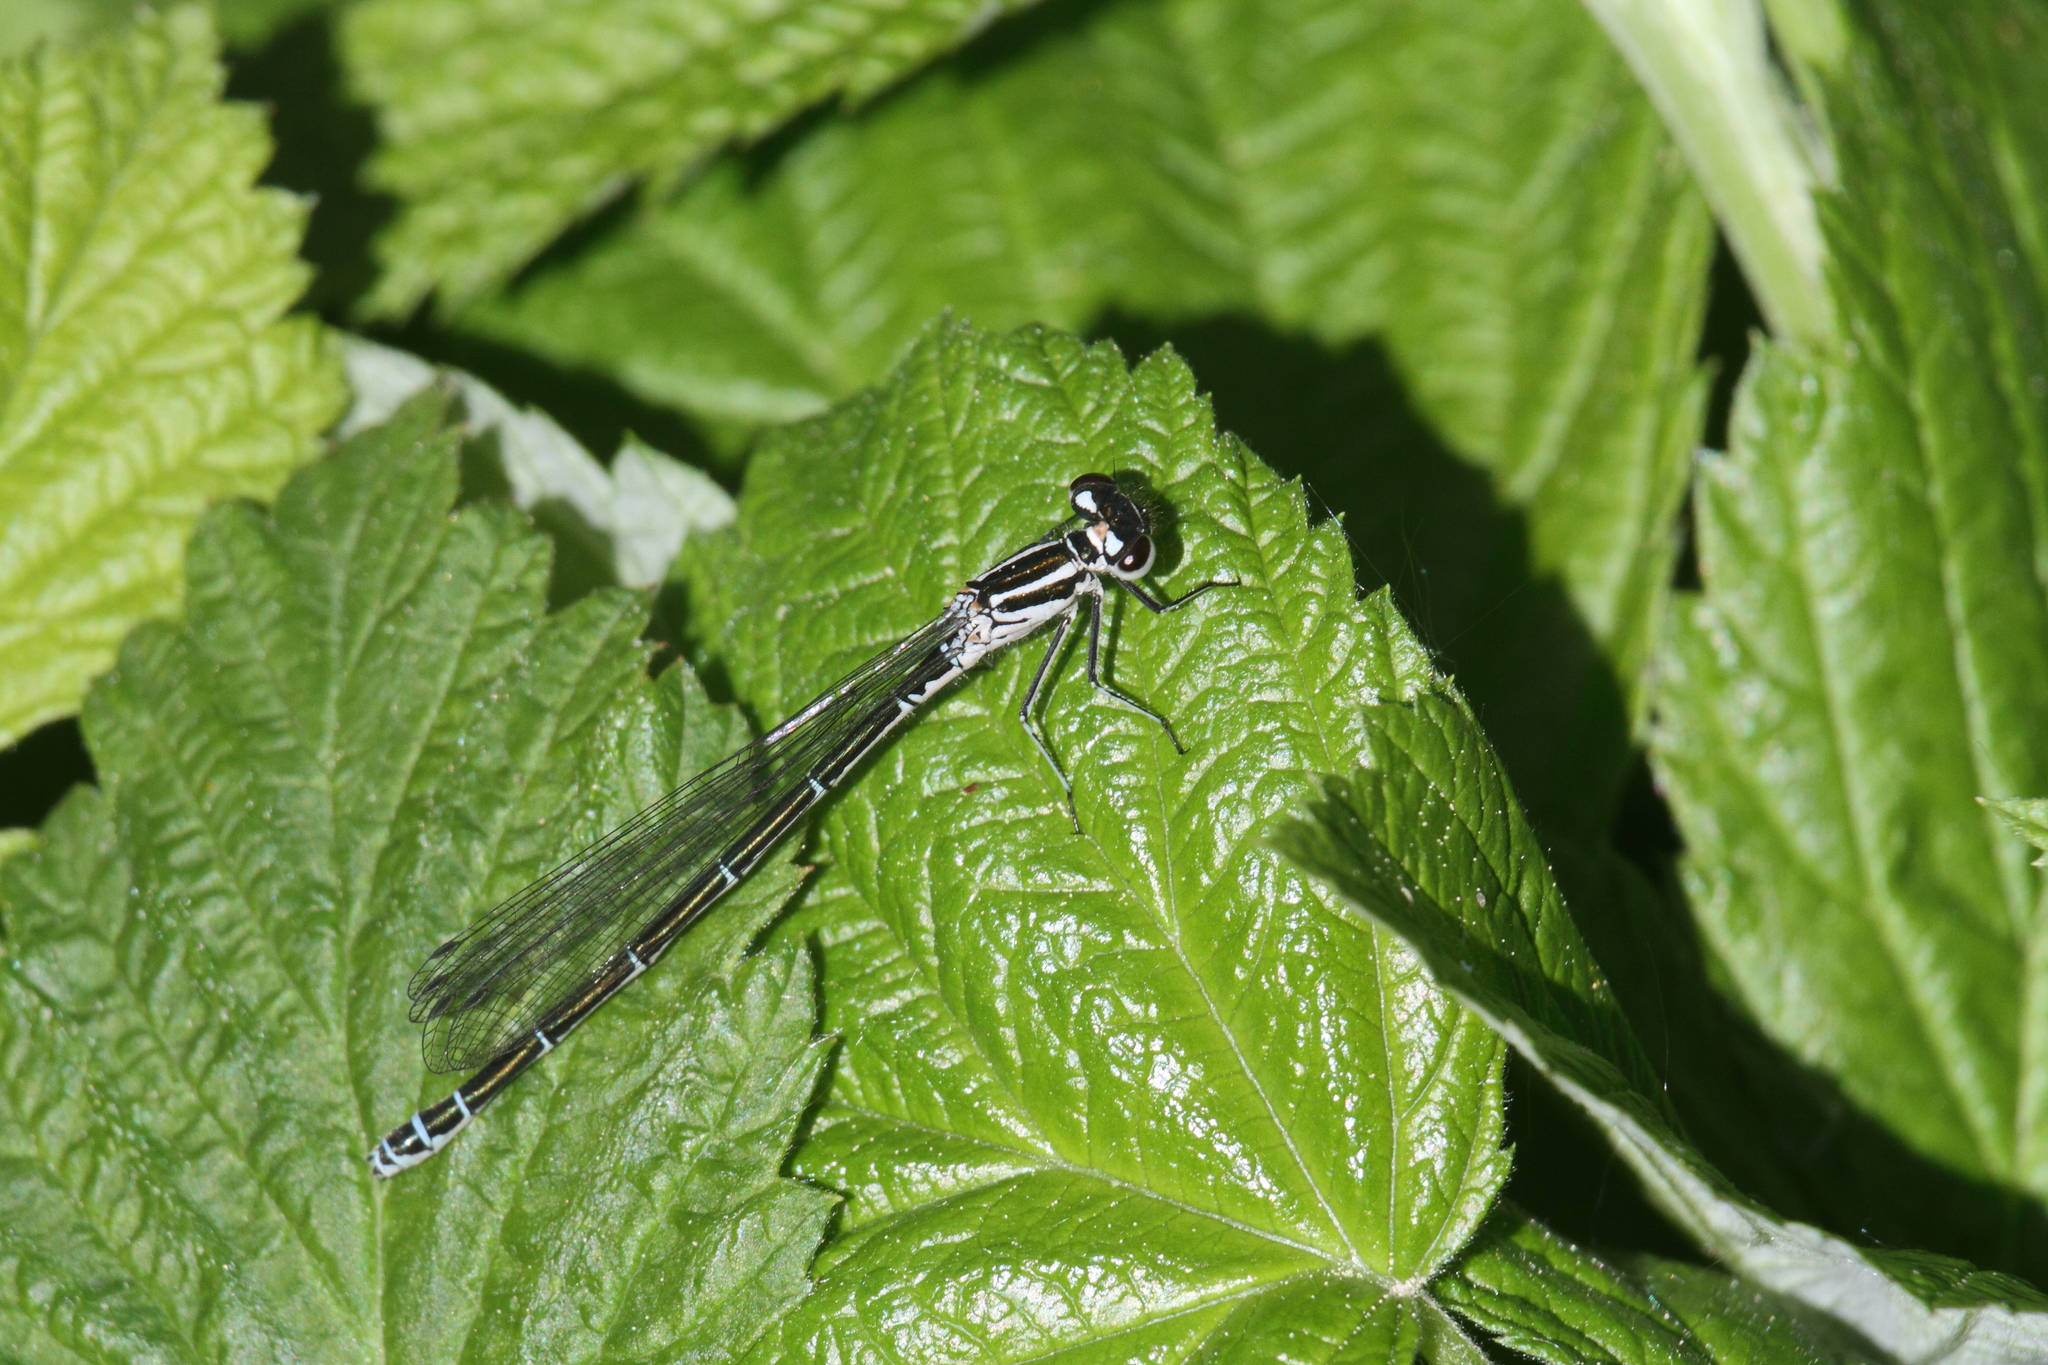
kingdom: Animalia
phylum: Arthropoda
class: Insecta
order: Odonata
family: Coenagrionidae
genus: Coenagrion
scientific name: Coenagrion puella
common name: Azure damselfly
